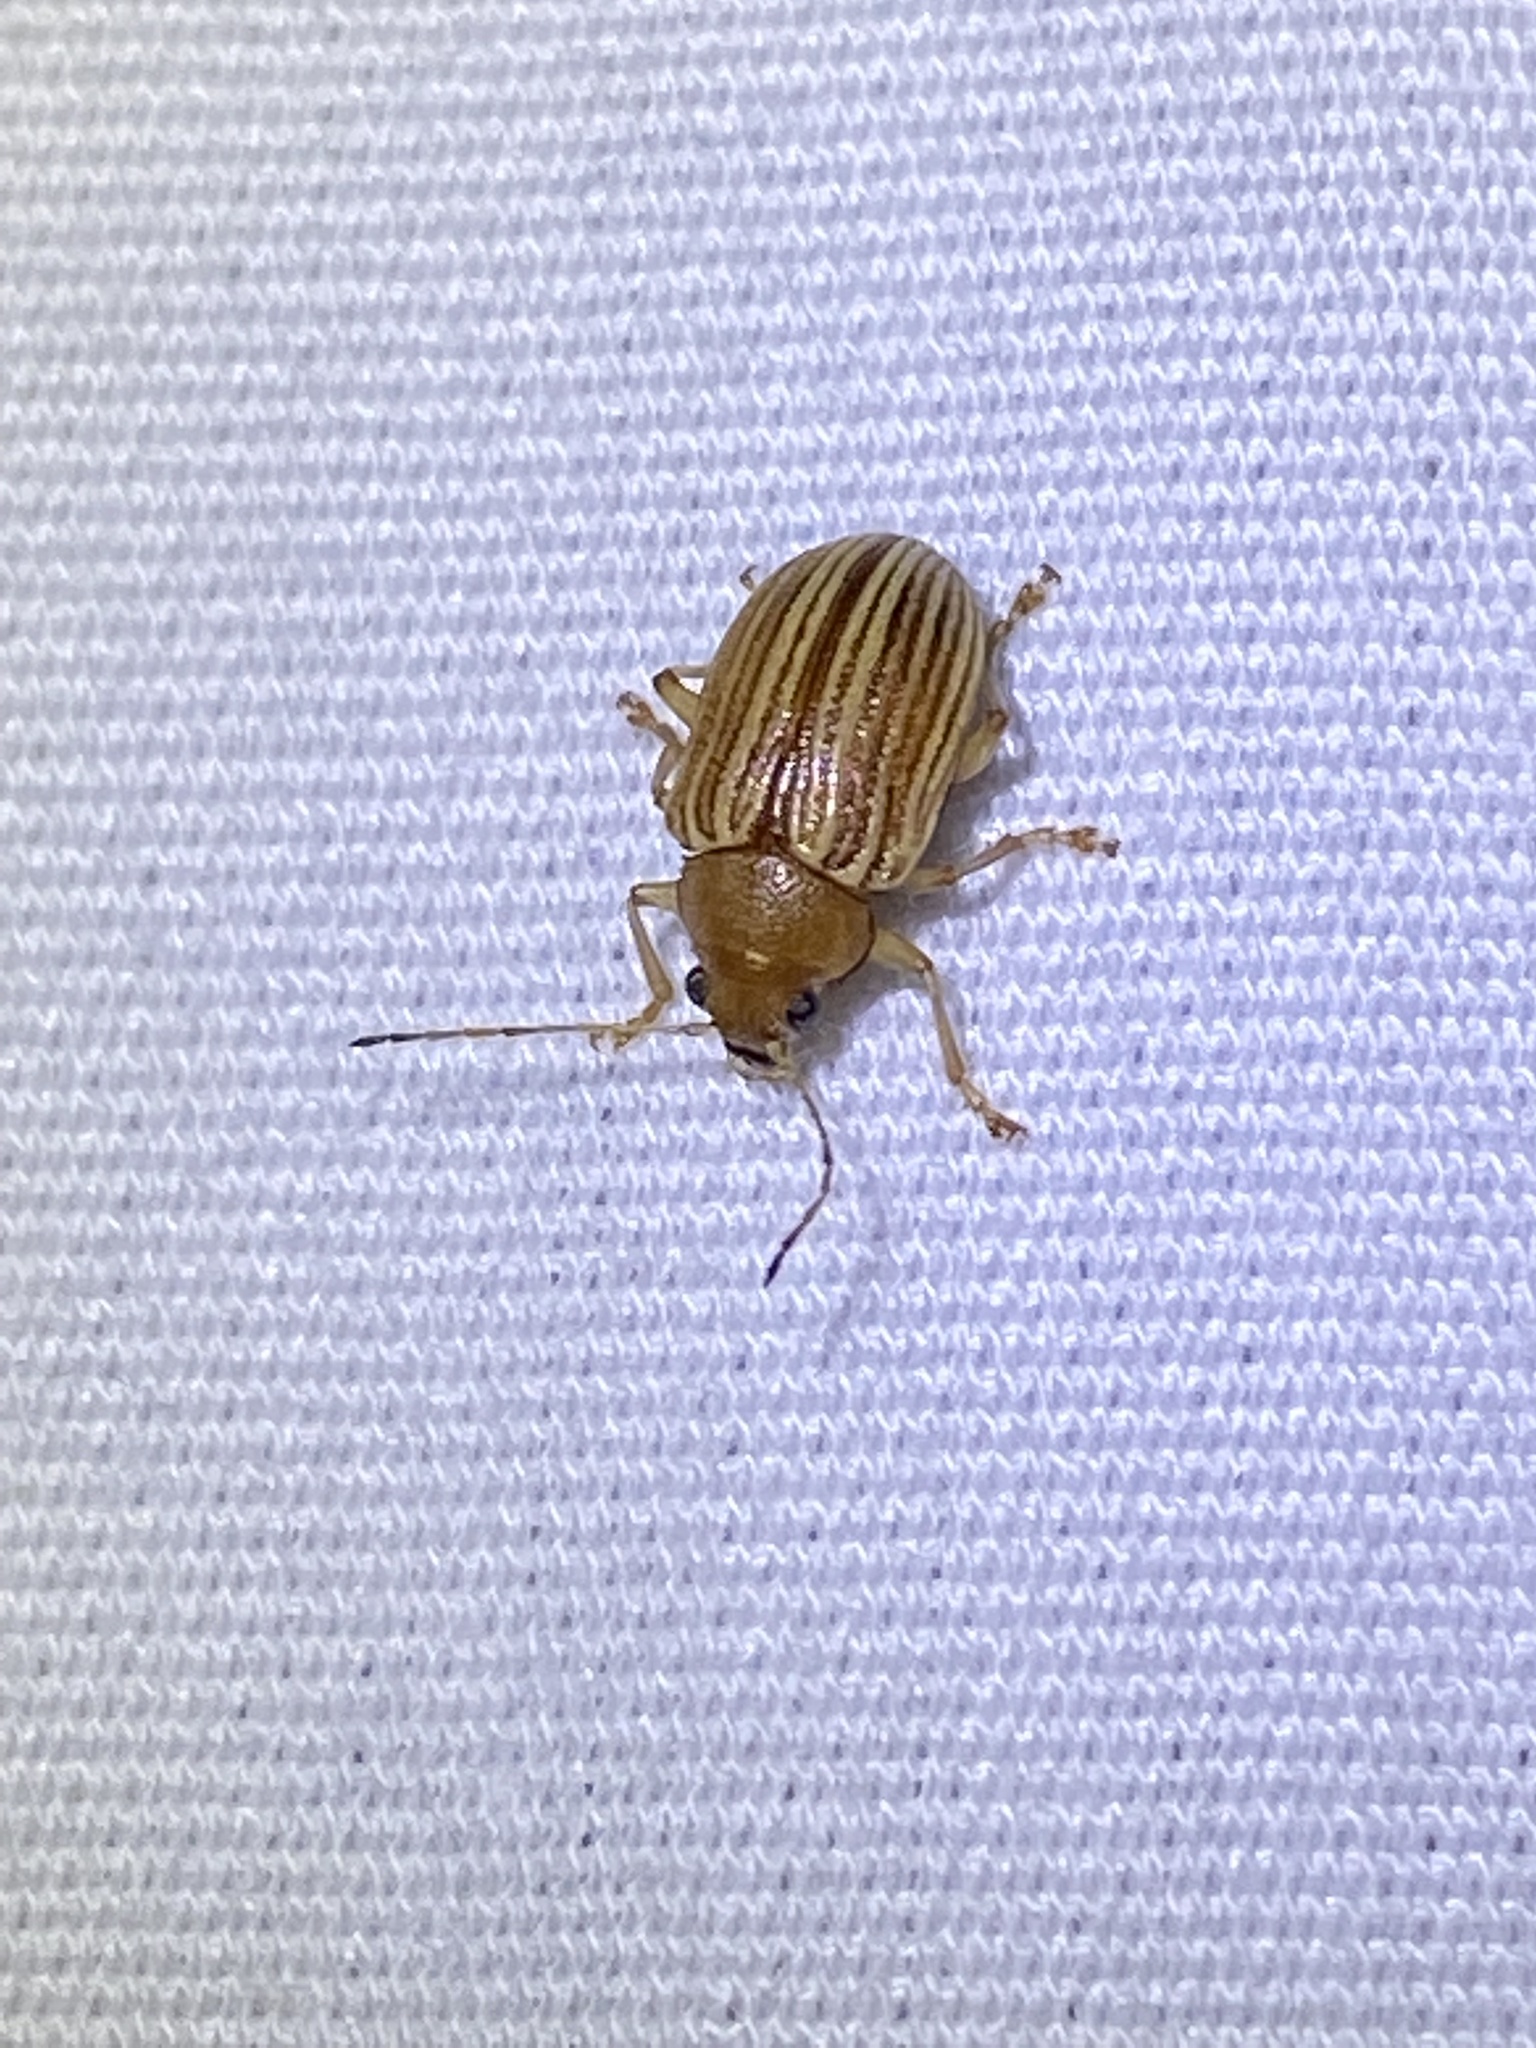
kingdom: Animalia
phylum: Arthropoda
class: Insecta
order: Coleoptera
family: Chrysomelidae
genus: Colaspis
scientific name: Colaspis brunnea
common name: Grape colaspis
